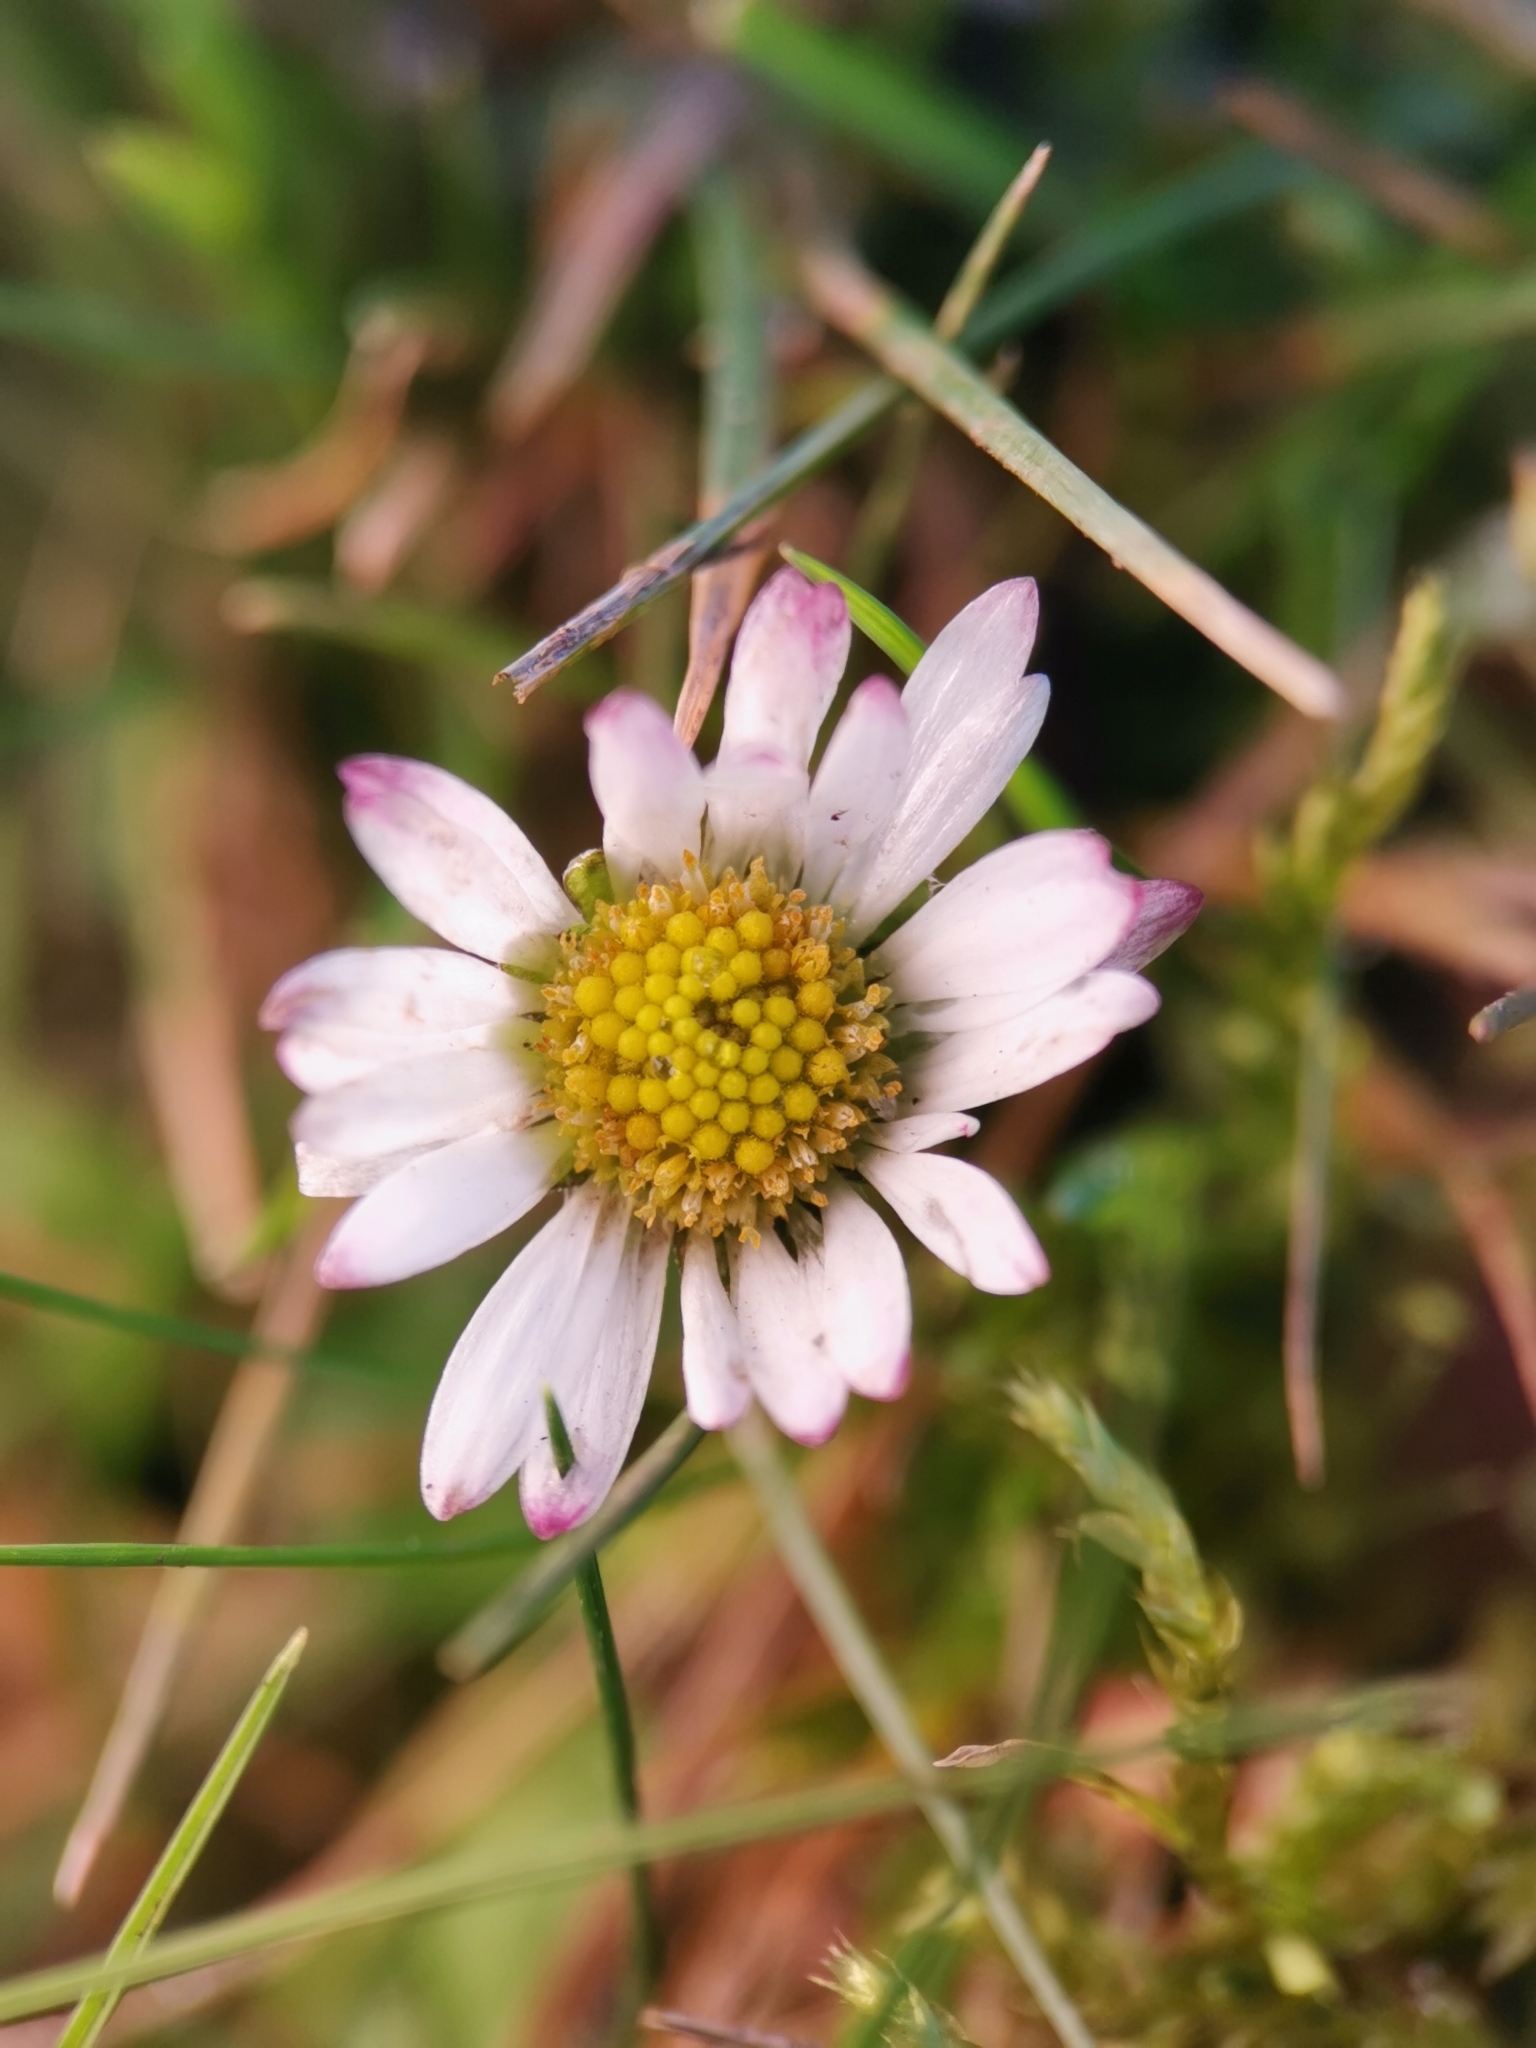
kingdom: Plantae
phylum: Tracheophyta
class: Magnoliopsida
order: Asterales
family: Asteraceae
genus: Bellis
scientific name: Bellis perennis
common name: Lawndaisy
